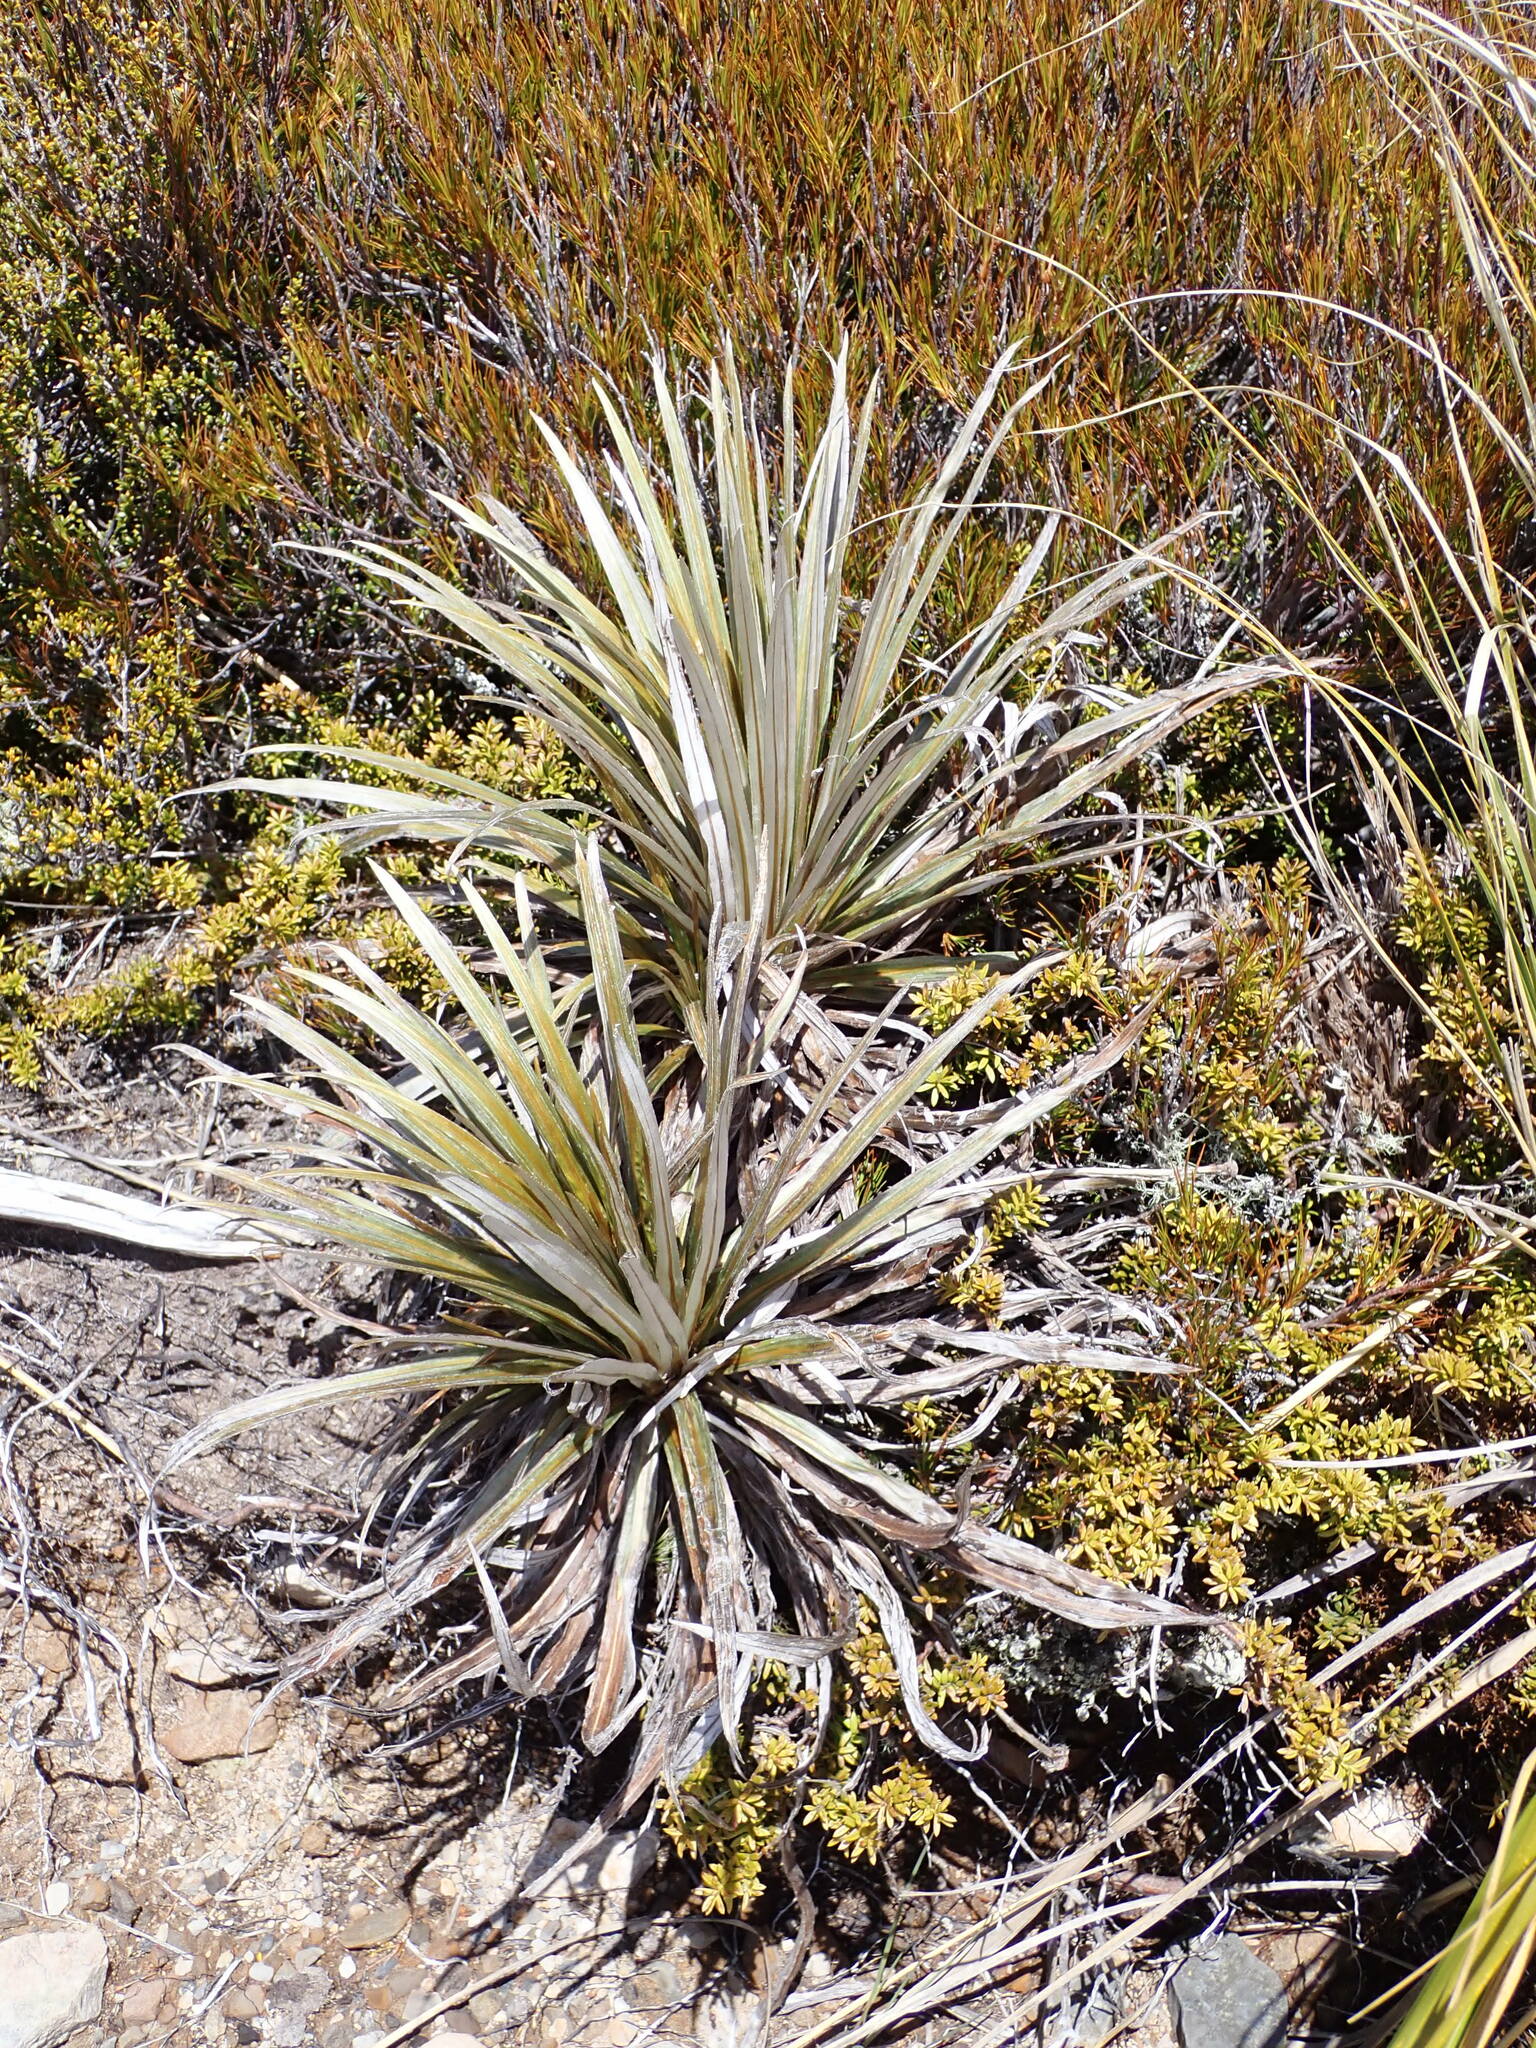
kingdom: Plantae
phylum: Tracheophyta
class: Magnoliopsida
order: Asterales
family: Asteraceae
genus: Celmisia
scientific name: Celmisia armstrongii
